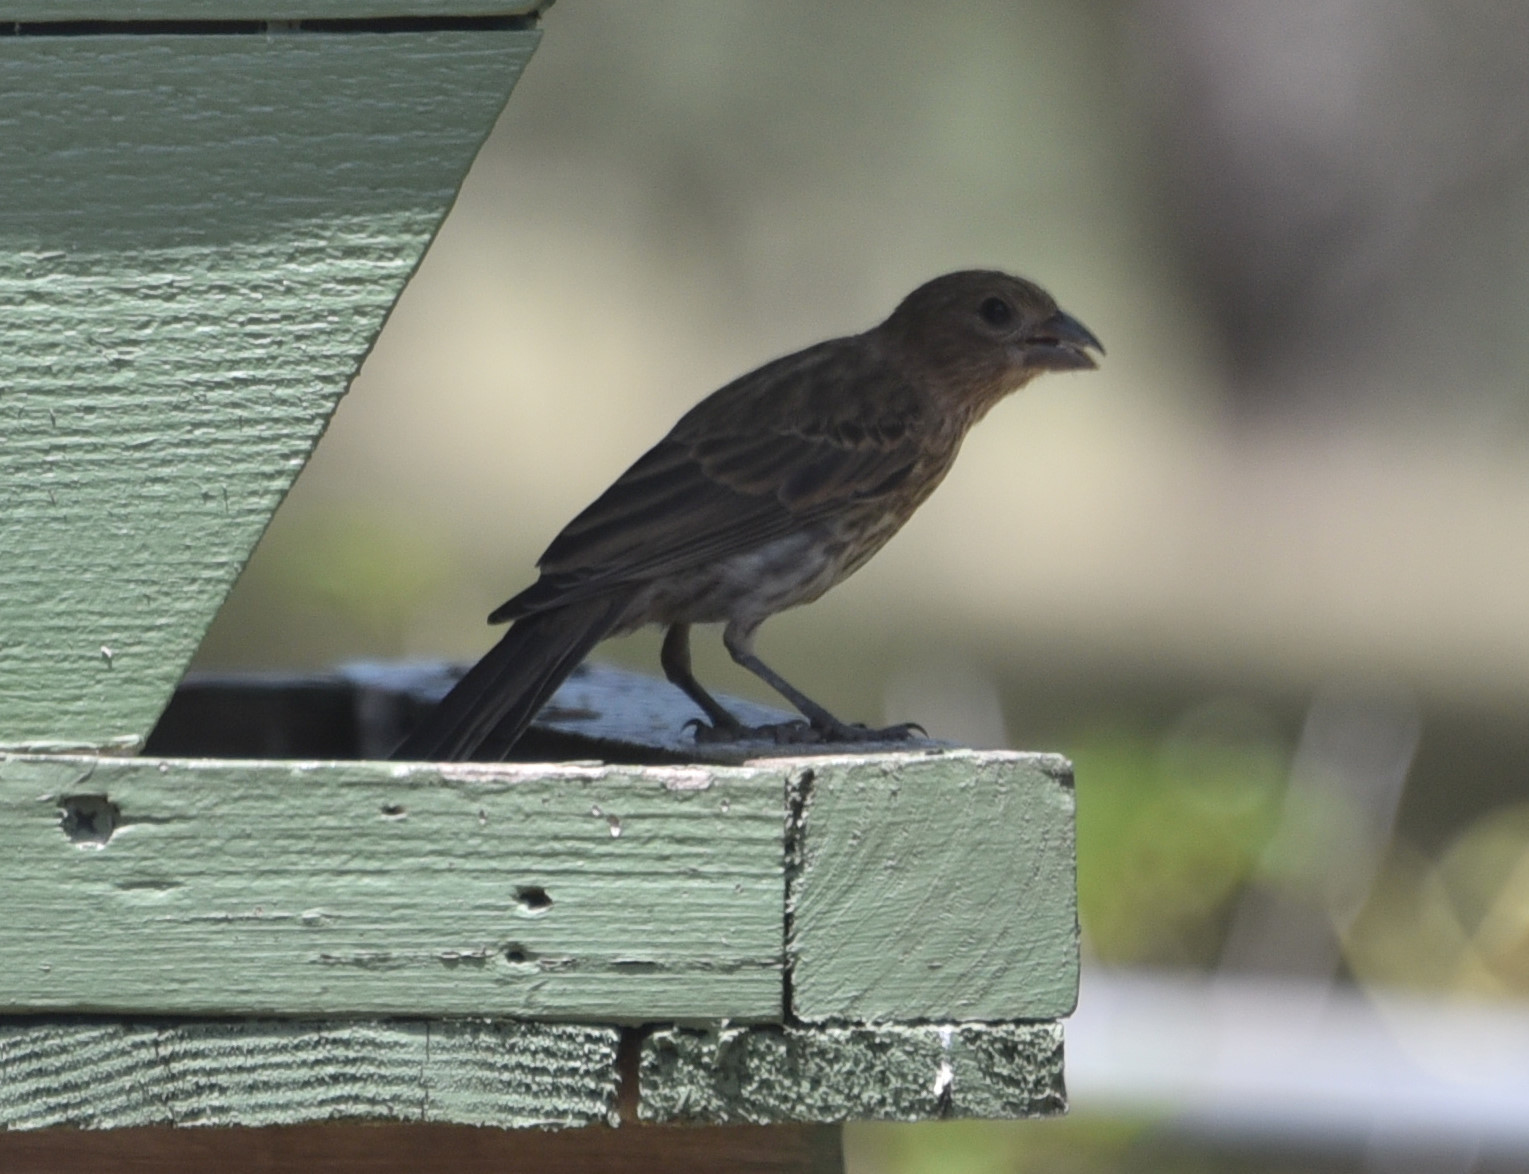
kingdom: Animalia
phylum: Chordata
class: Aves
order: Passeriformes
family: Fringillidae
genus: Haemorhous
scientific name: Haemorhous mexicanus
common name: House finch
